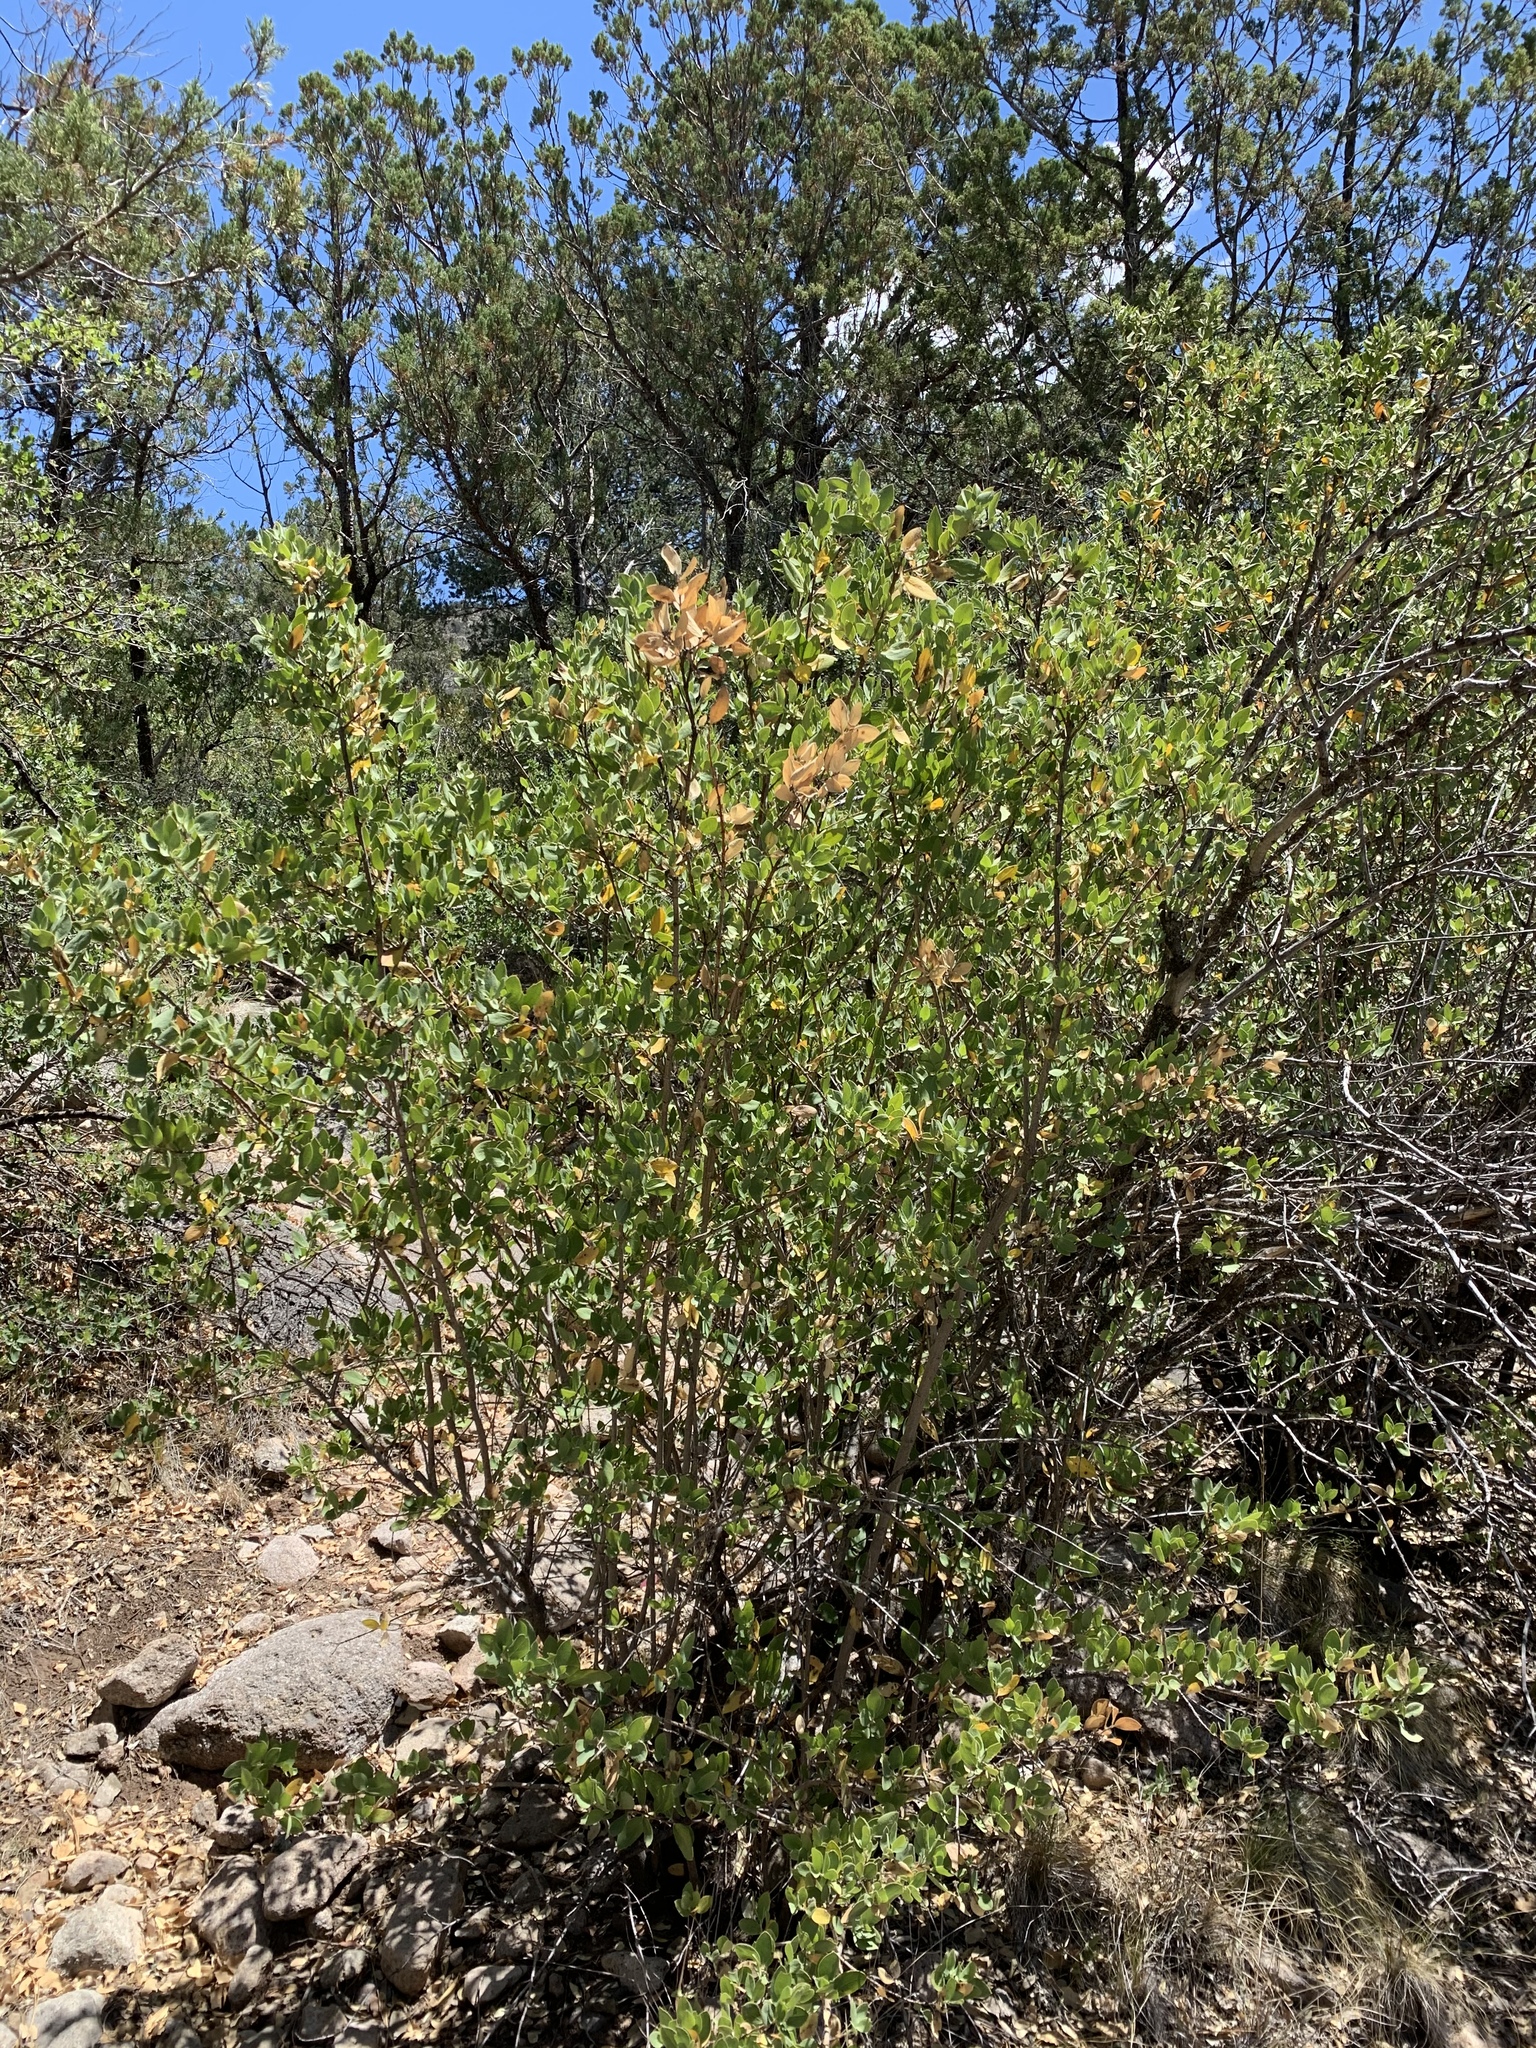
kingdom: Plantae
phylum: Tracheophyta
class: Magnoliopsida
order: Garryales
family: Garryaceae
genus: Garrya
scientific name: Garrya wrightii
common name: Wright's silktassel
